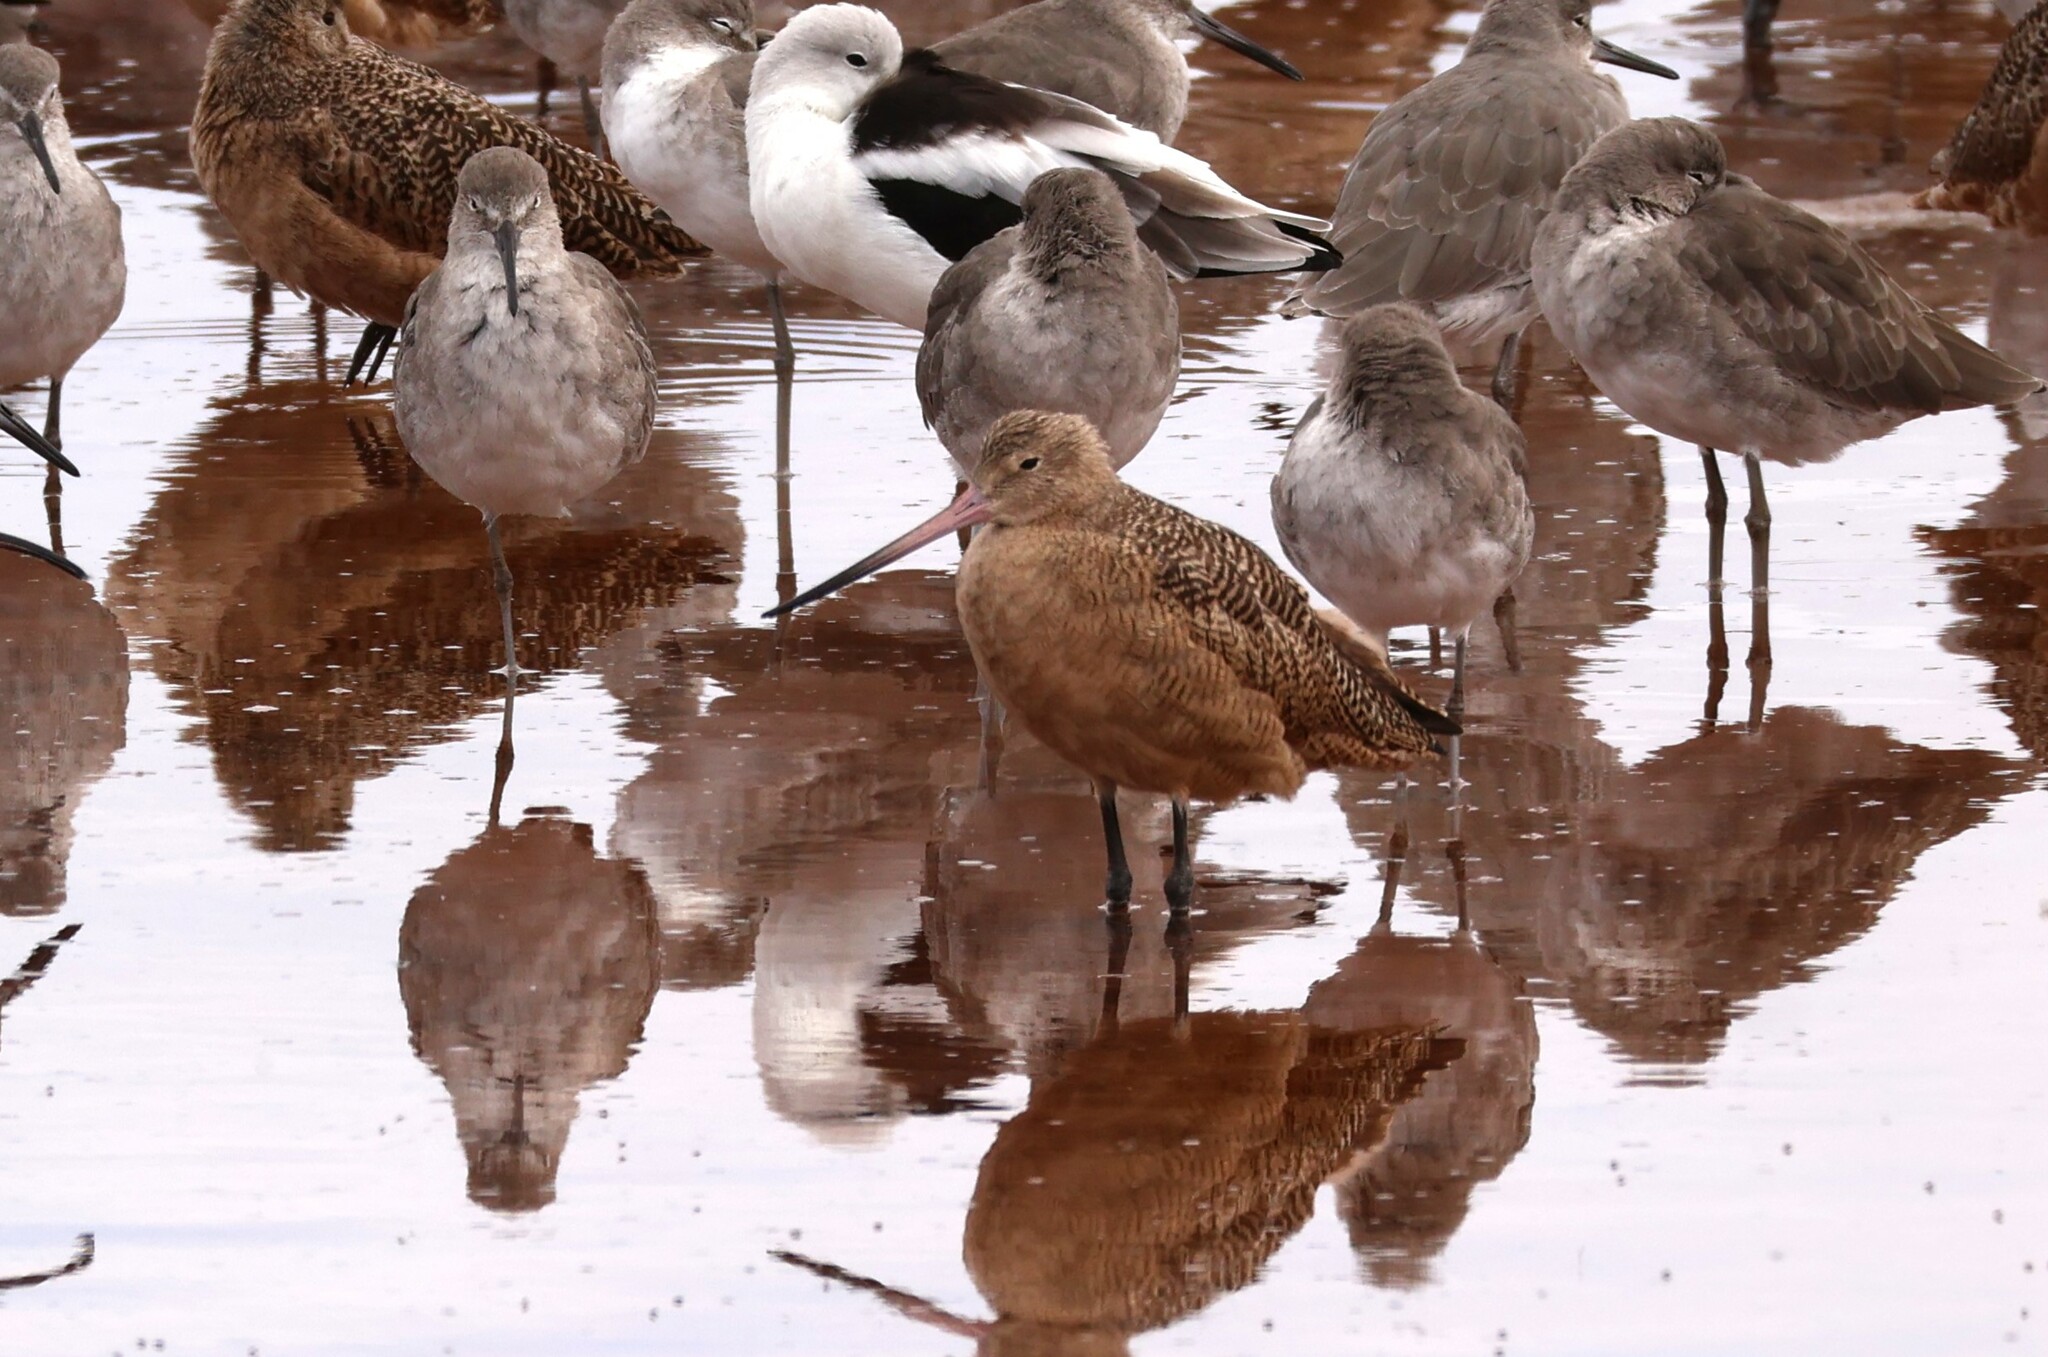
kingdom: Animalia
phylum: Chordata
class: Aves
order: Charadriiformes
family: Scolopacidae
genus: Limosa
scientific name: Limosa fedoa
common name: Marbled godwit
